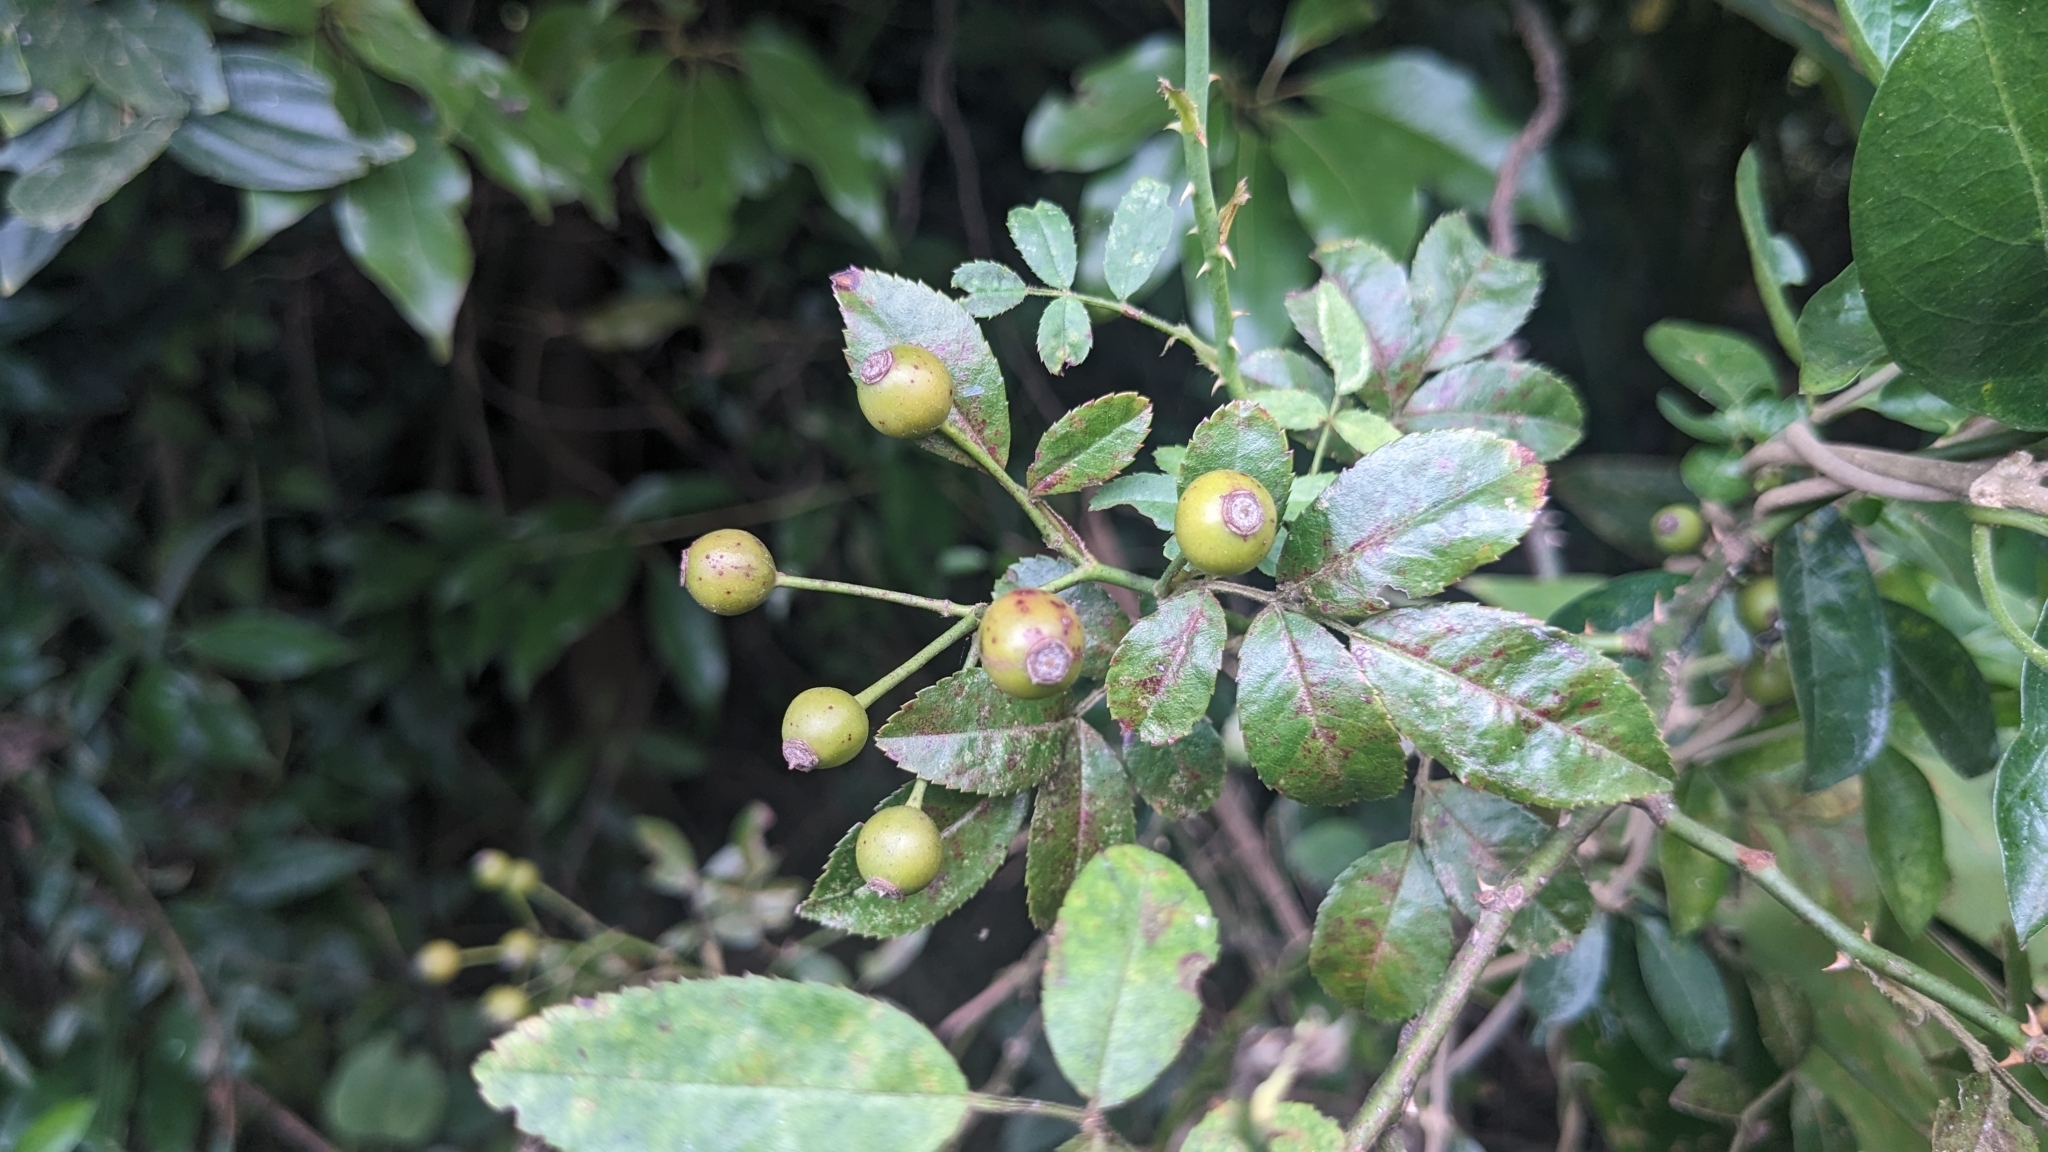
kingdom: Plantae
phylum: Tracheophyta
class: Magnoliopsida
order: Rosales
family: Rosaceae
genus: Rosa
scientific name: Rosa kwangtungensis
